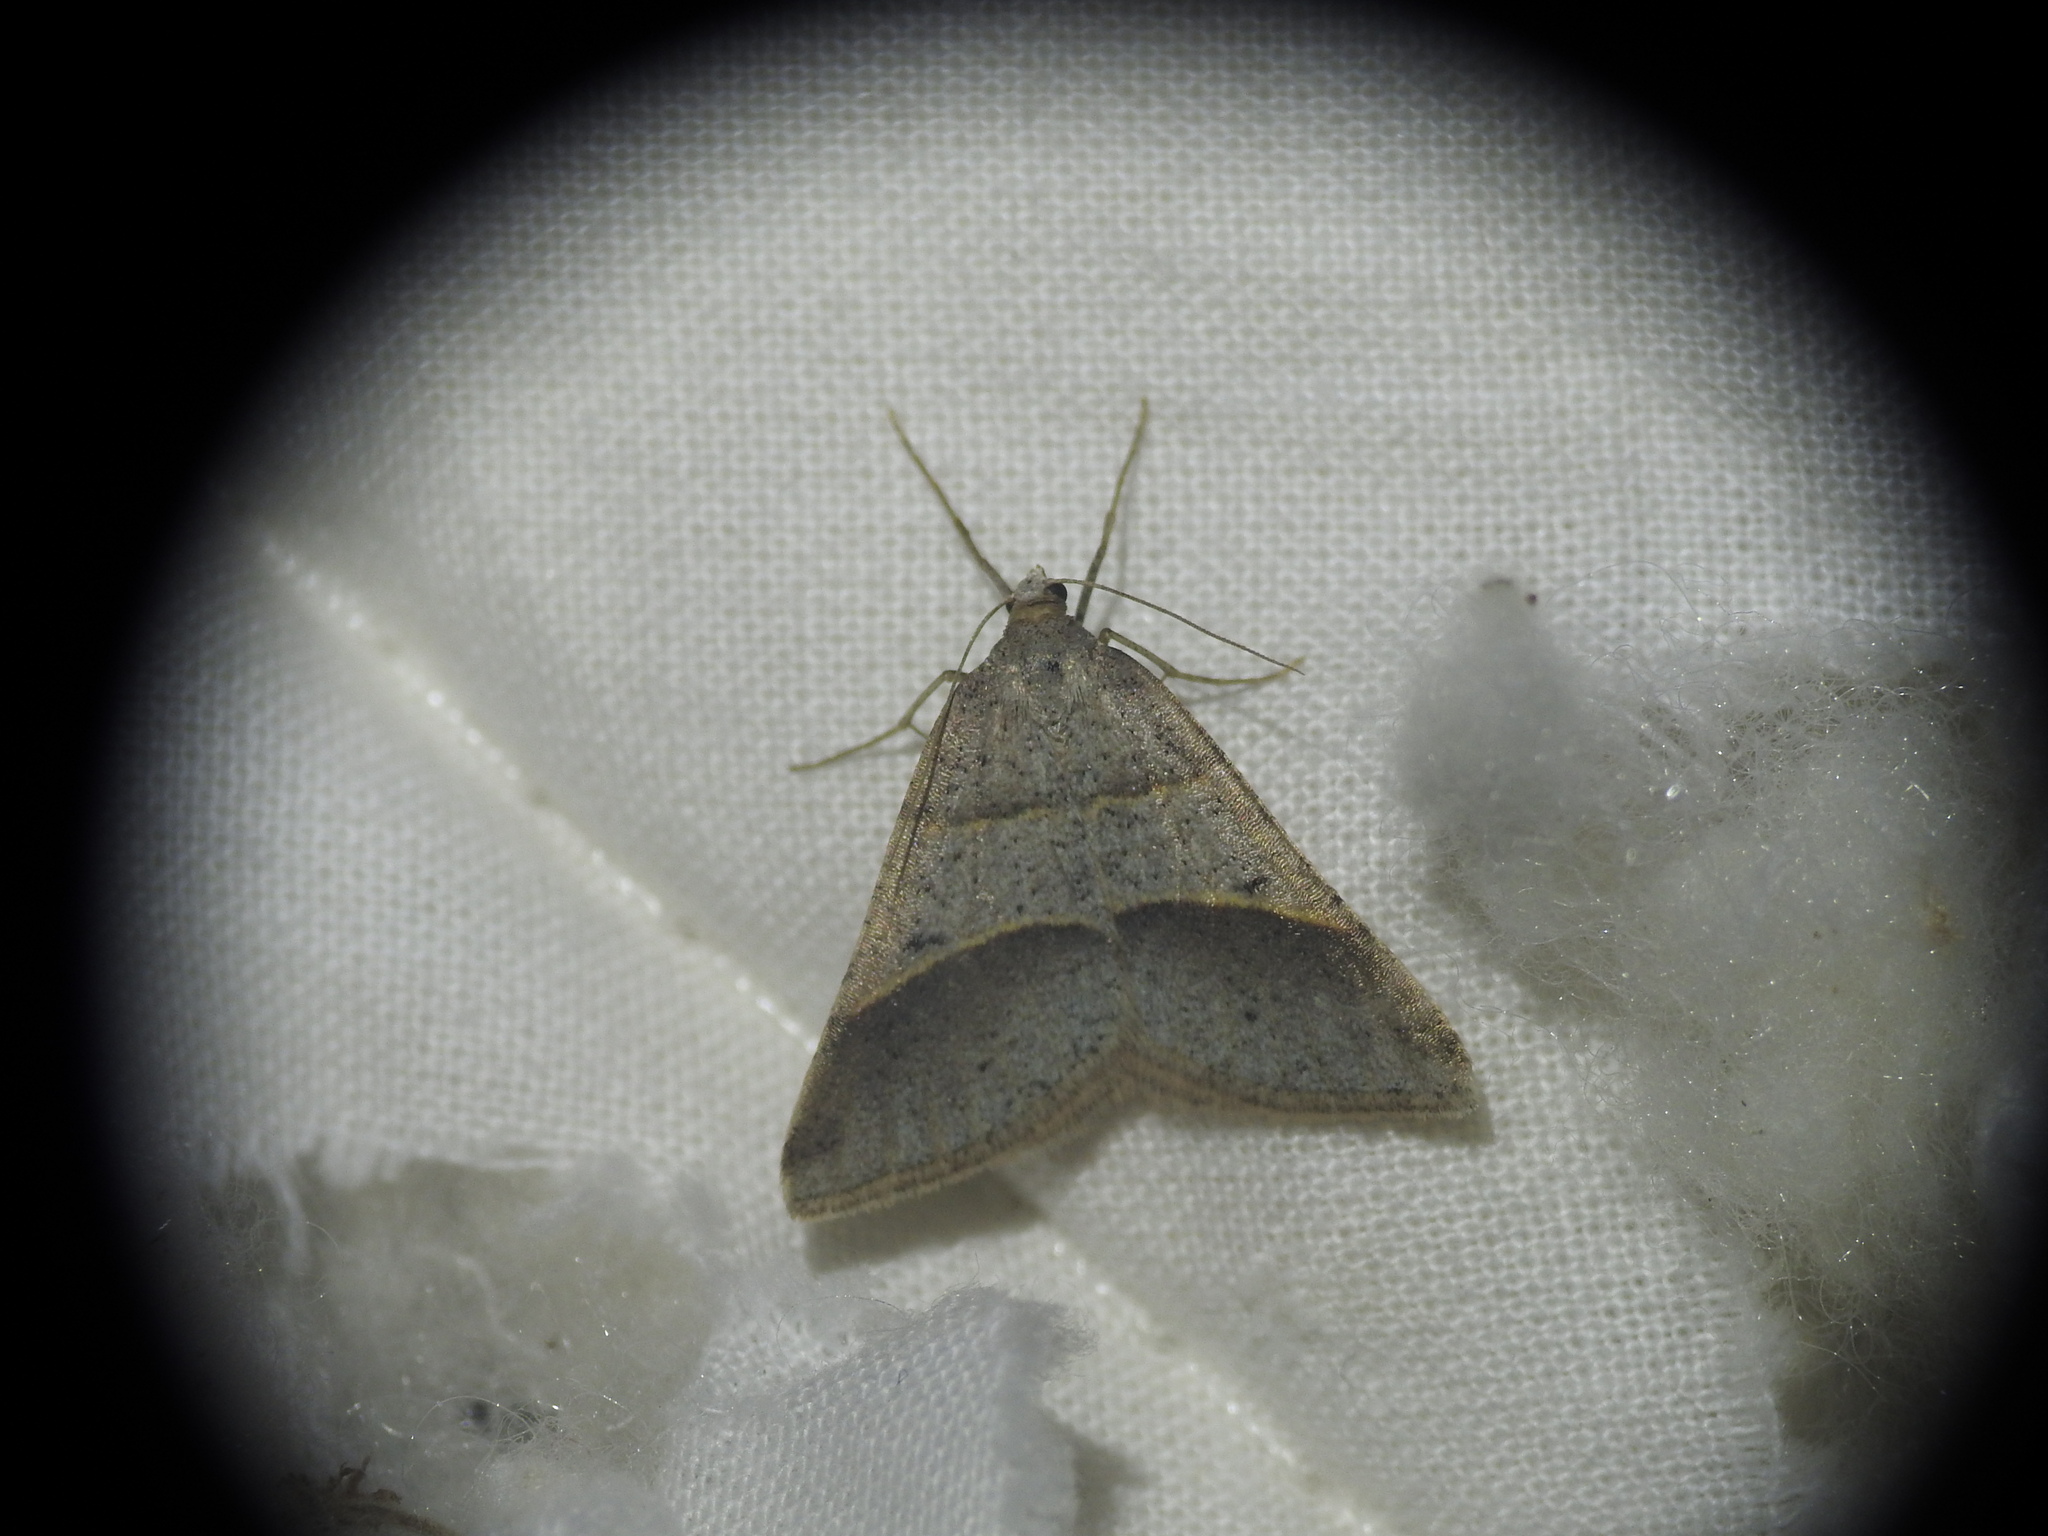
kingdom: Animalia
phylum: Arthropoda
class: Insecta
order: Lepidoptera
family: Pterophoridae
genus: Pterophorus
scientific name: Pterophorus Petrophora convergata
